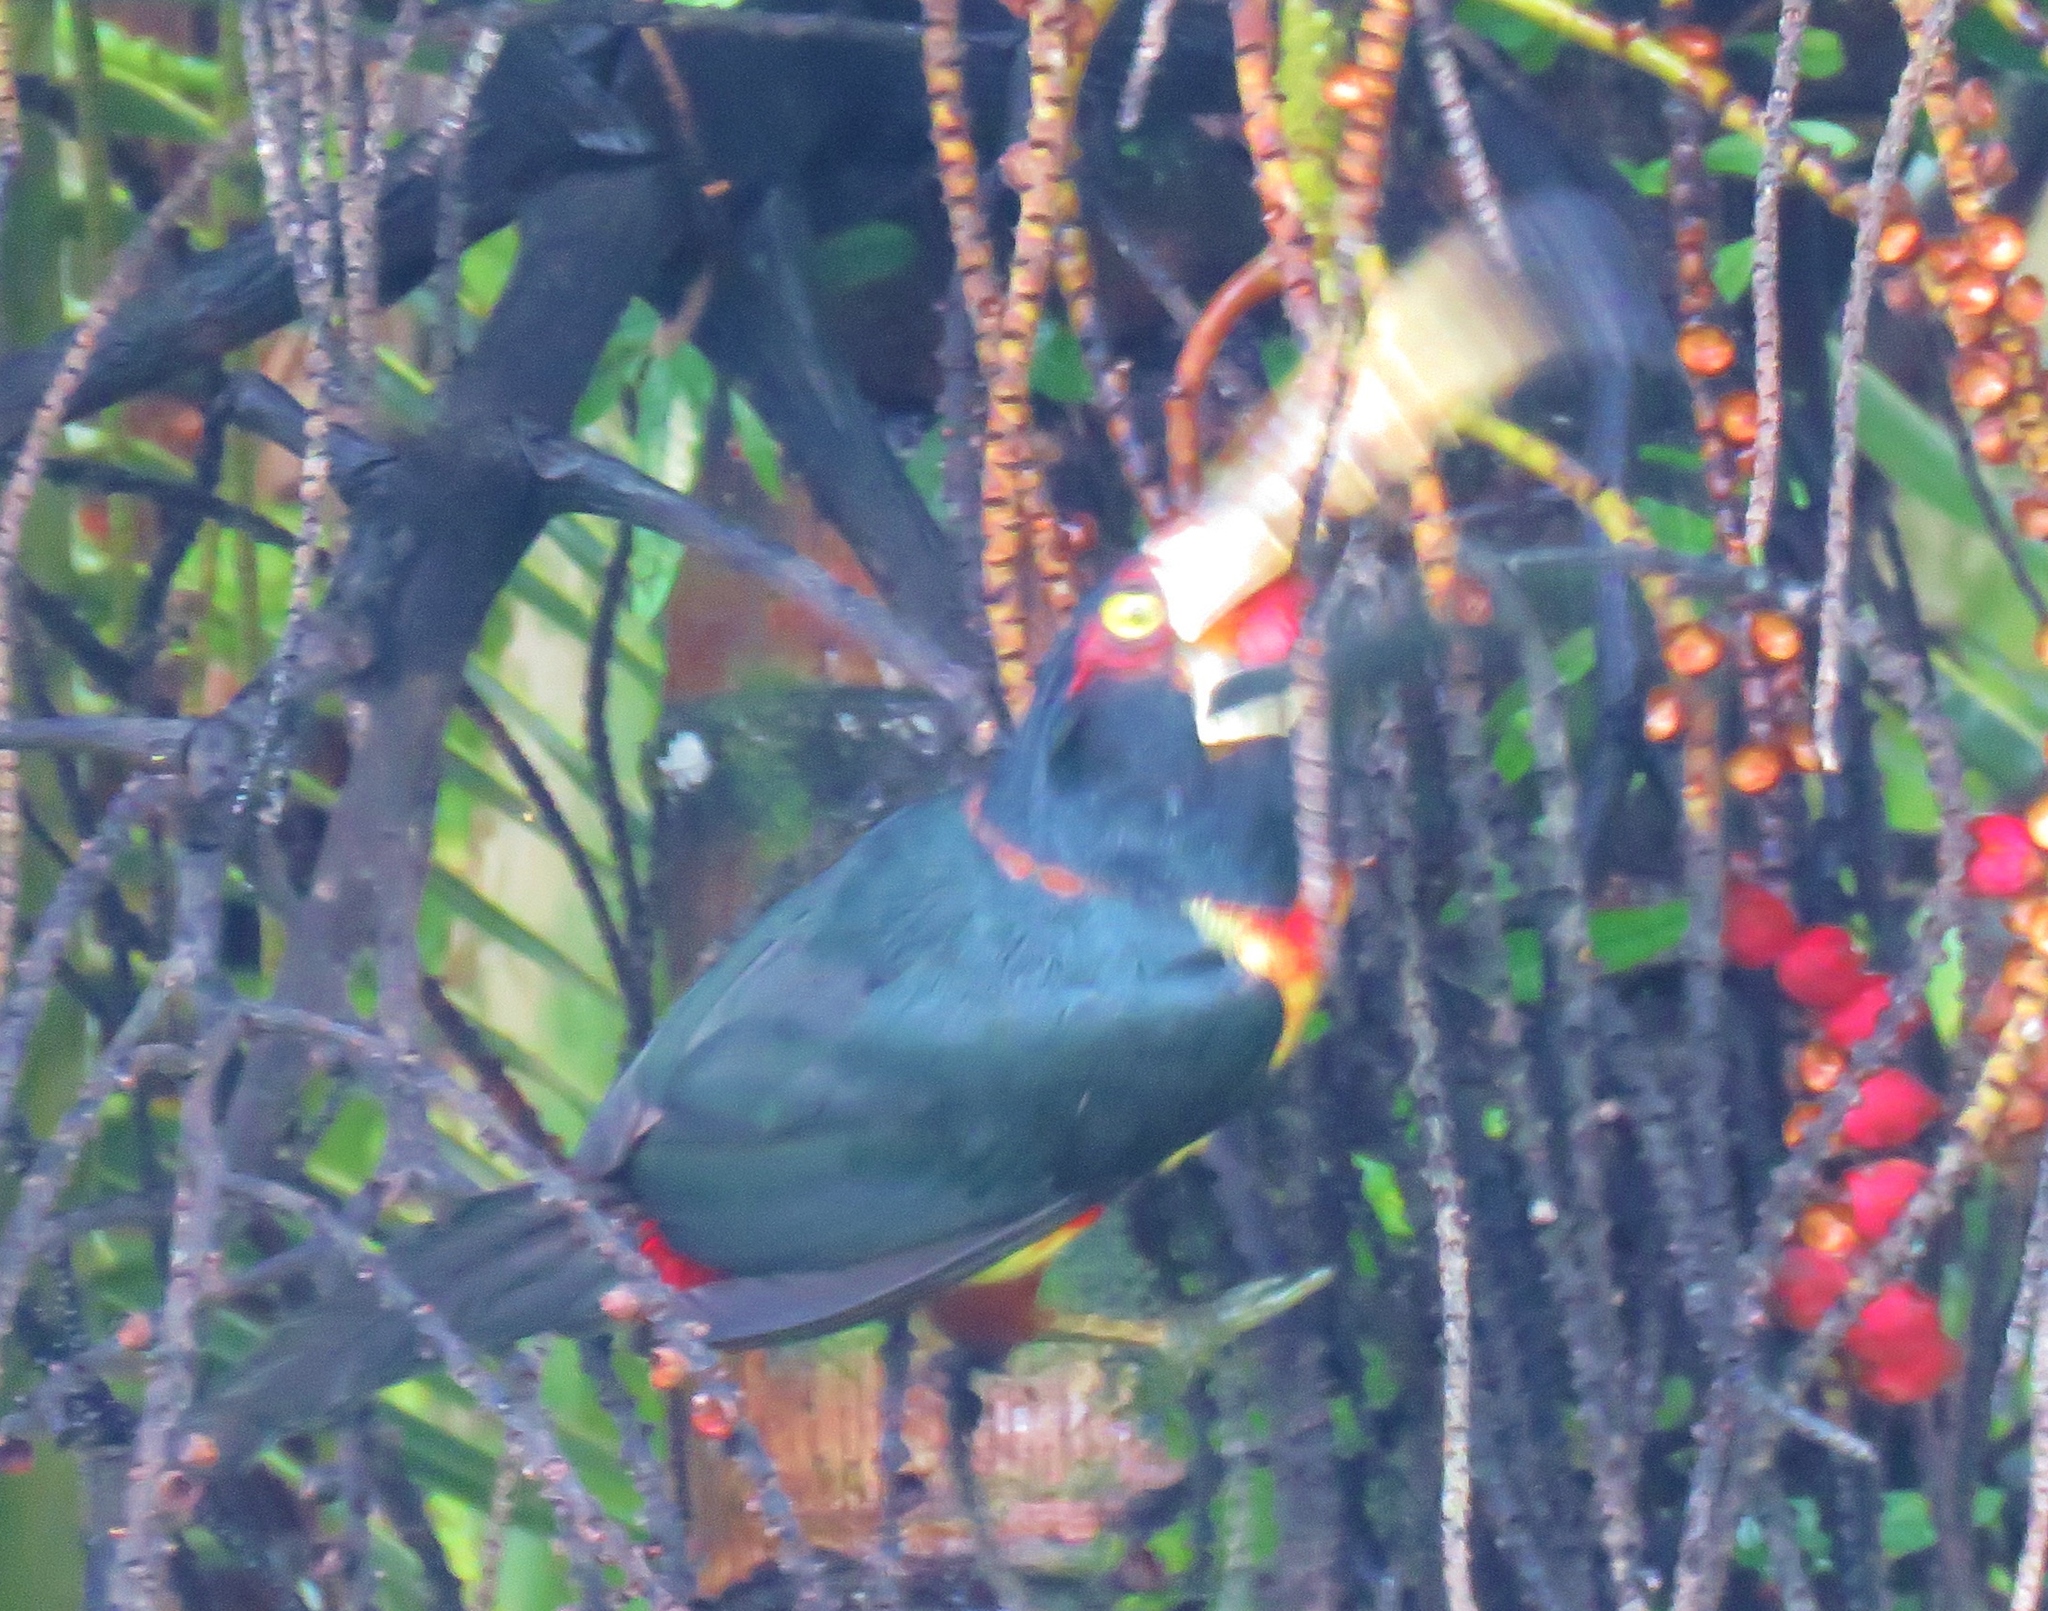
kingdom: Animalia
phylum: Chordata
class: Aves
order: Piciformes
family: Ramphastidae
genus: Pteroglossus
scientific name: Pteroglossus torquatus
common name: Collared aracari
